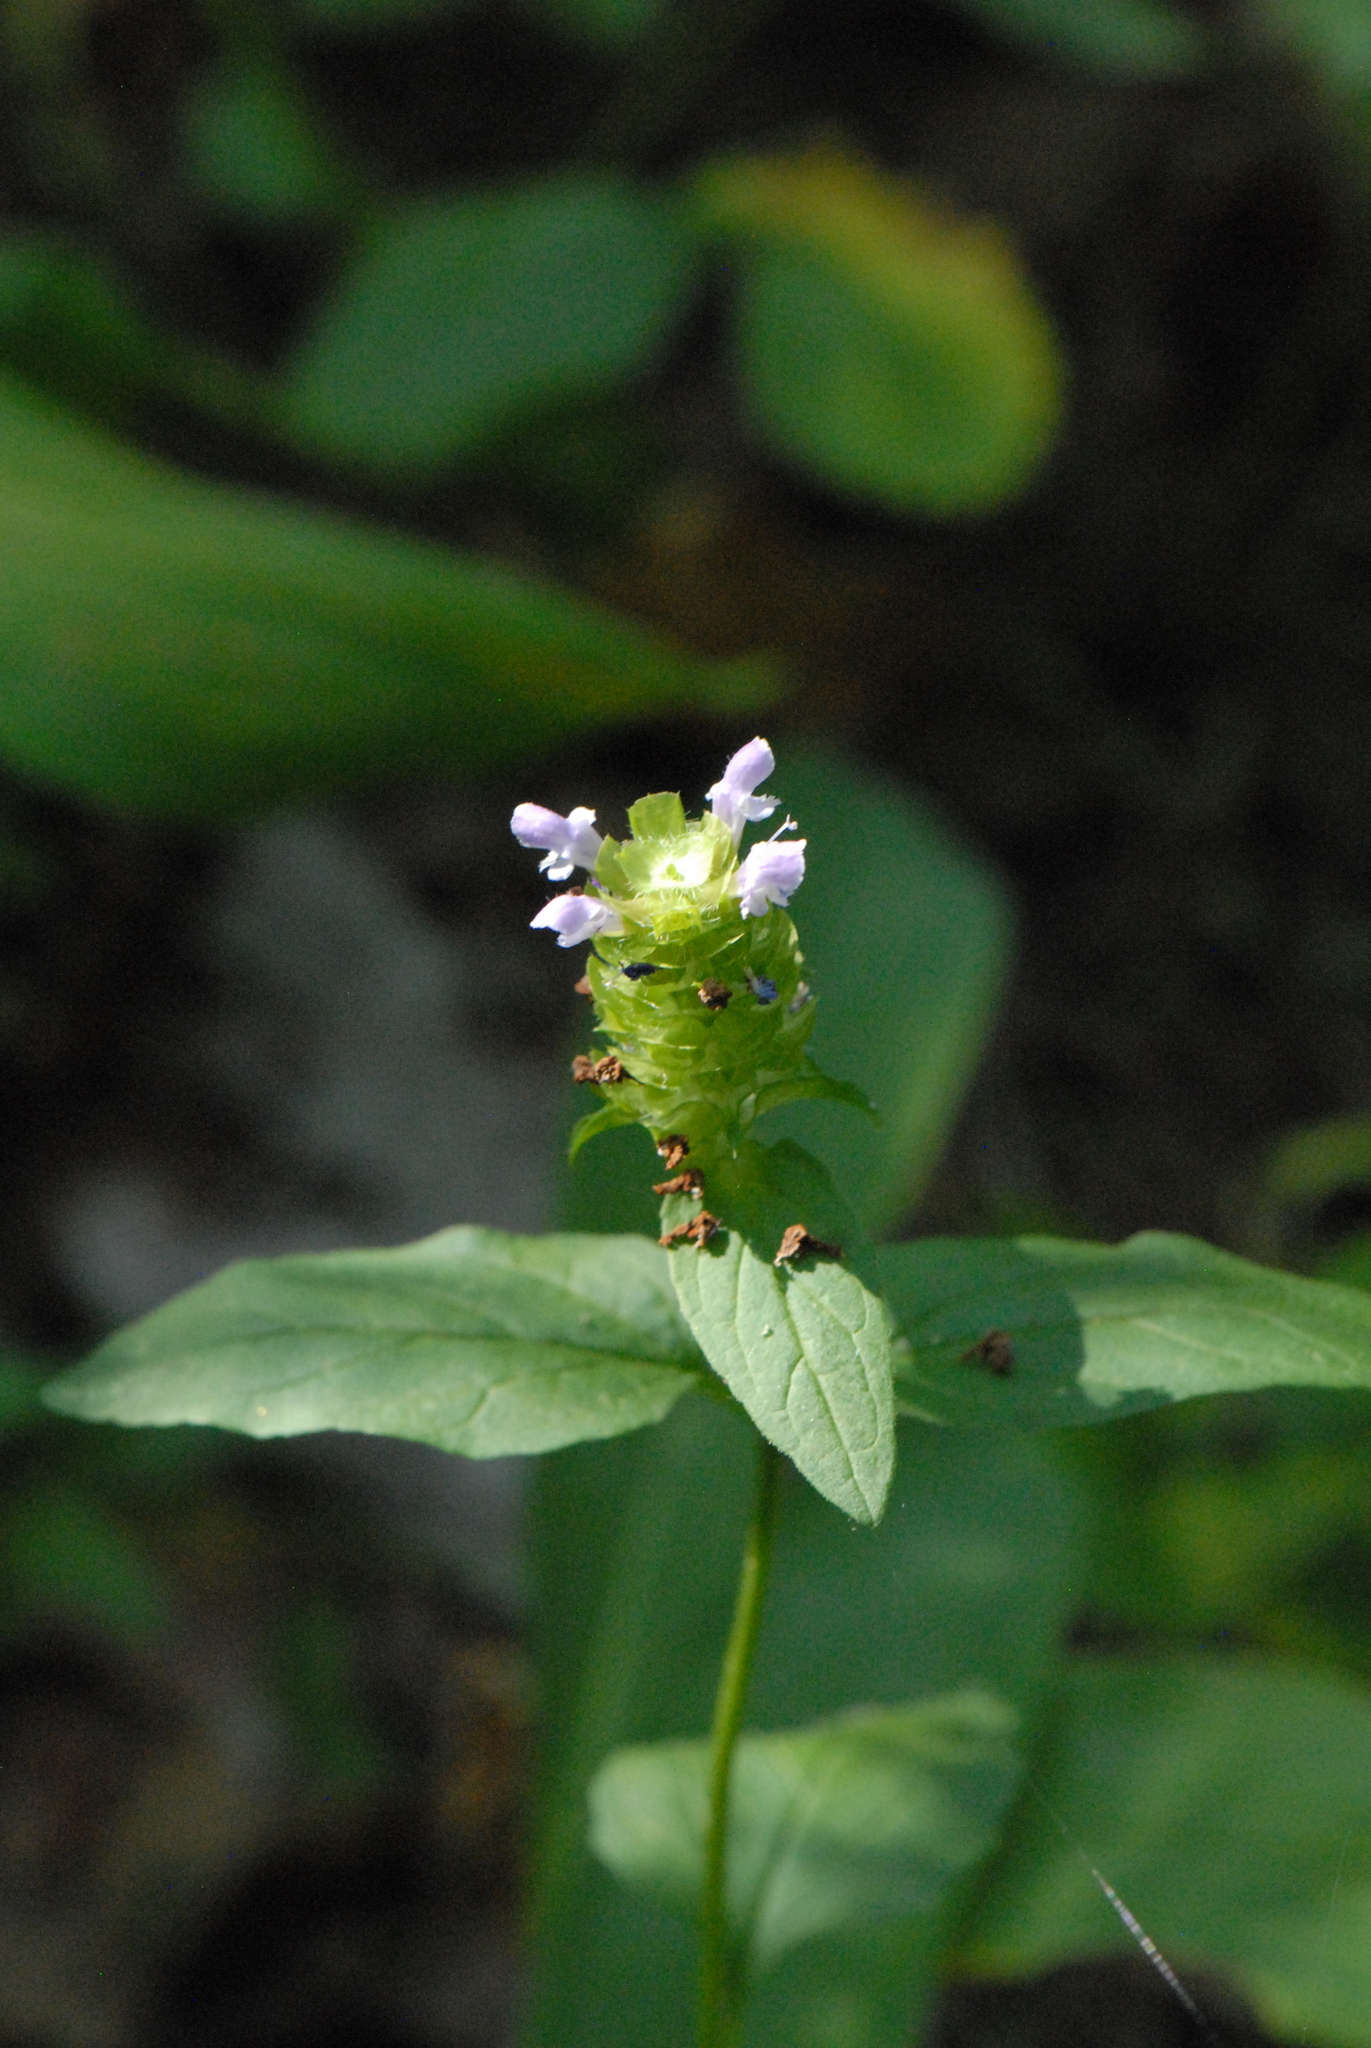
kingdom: Plantae
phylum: Tracheophyta
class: Magnoliopsida
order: Lamiales
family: Lamiaceae
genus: Prunella
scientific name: Prunella vulgaris
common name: Heal-all
